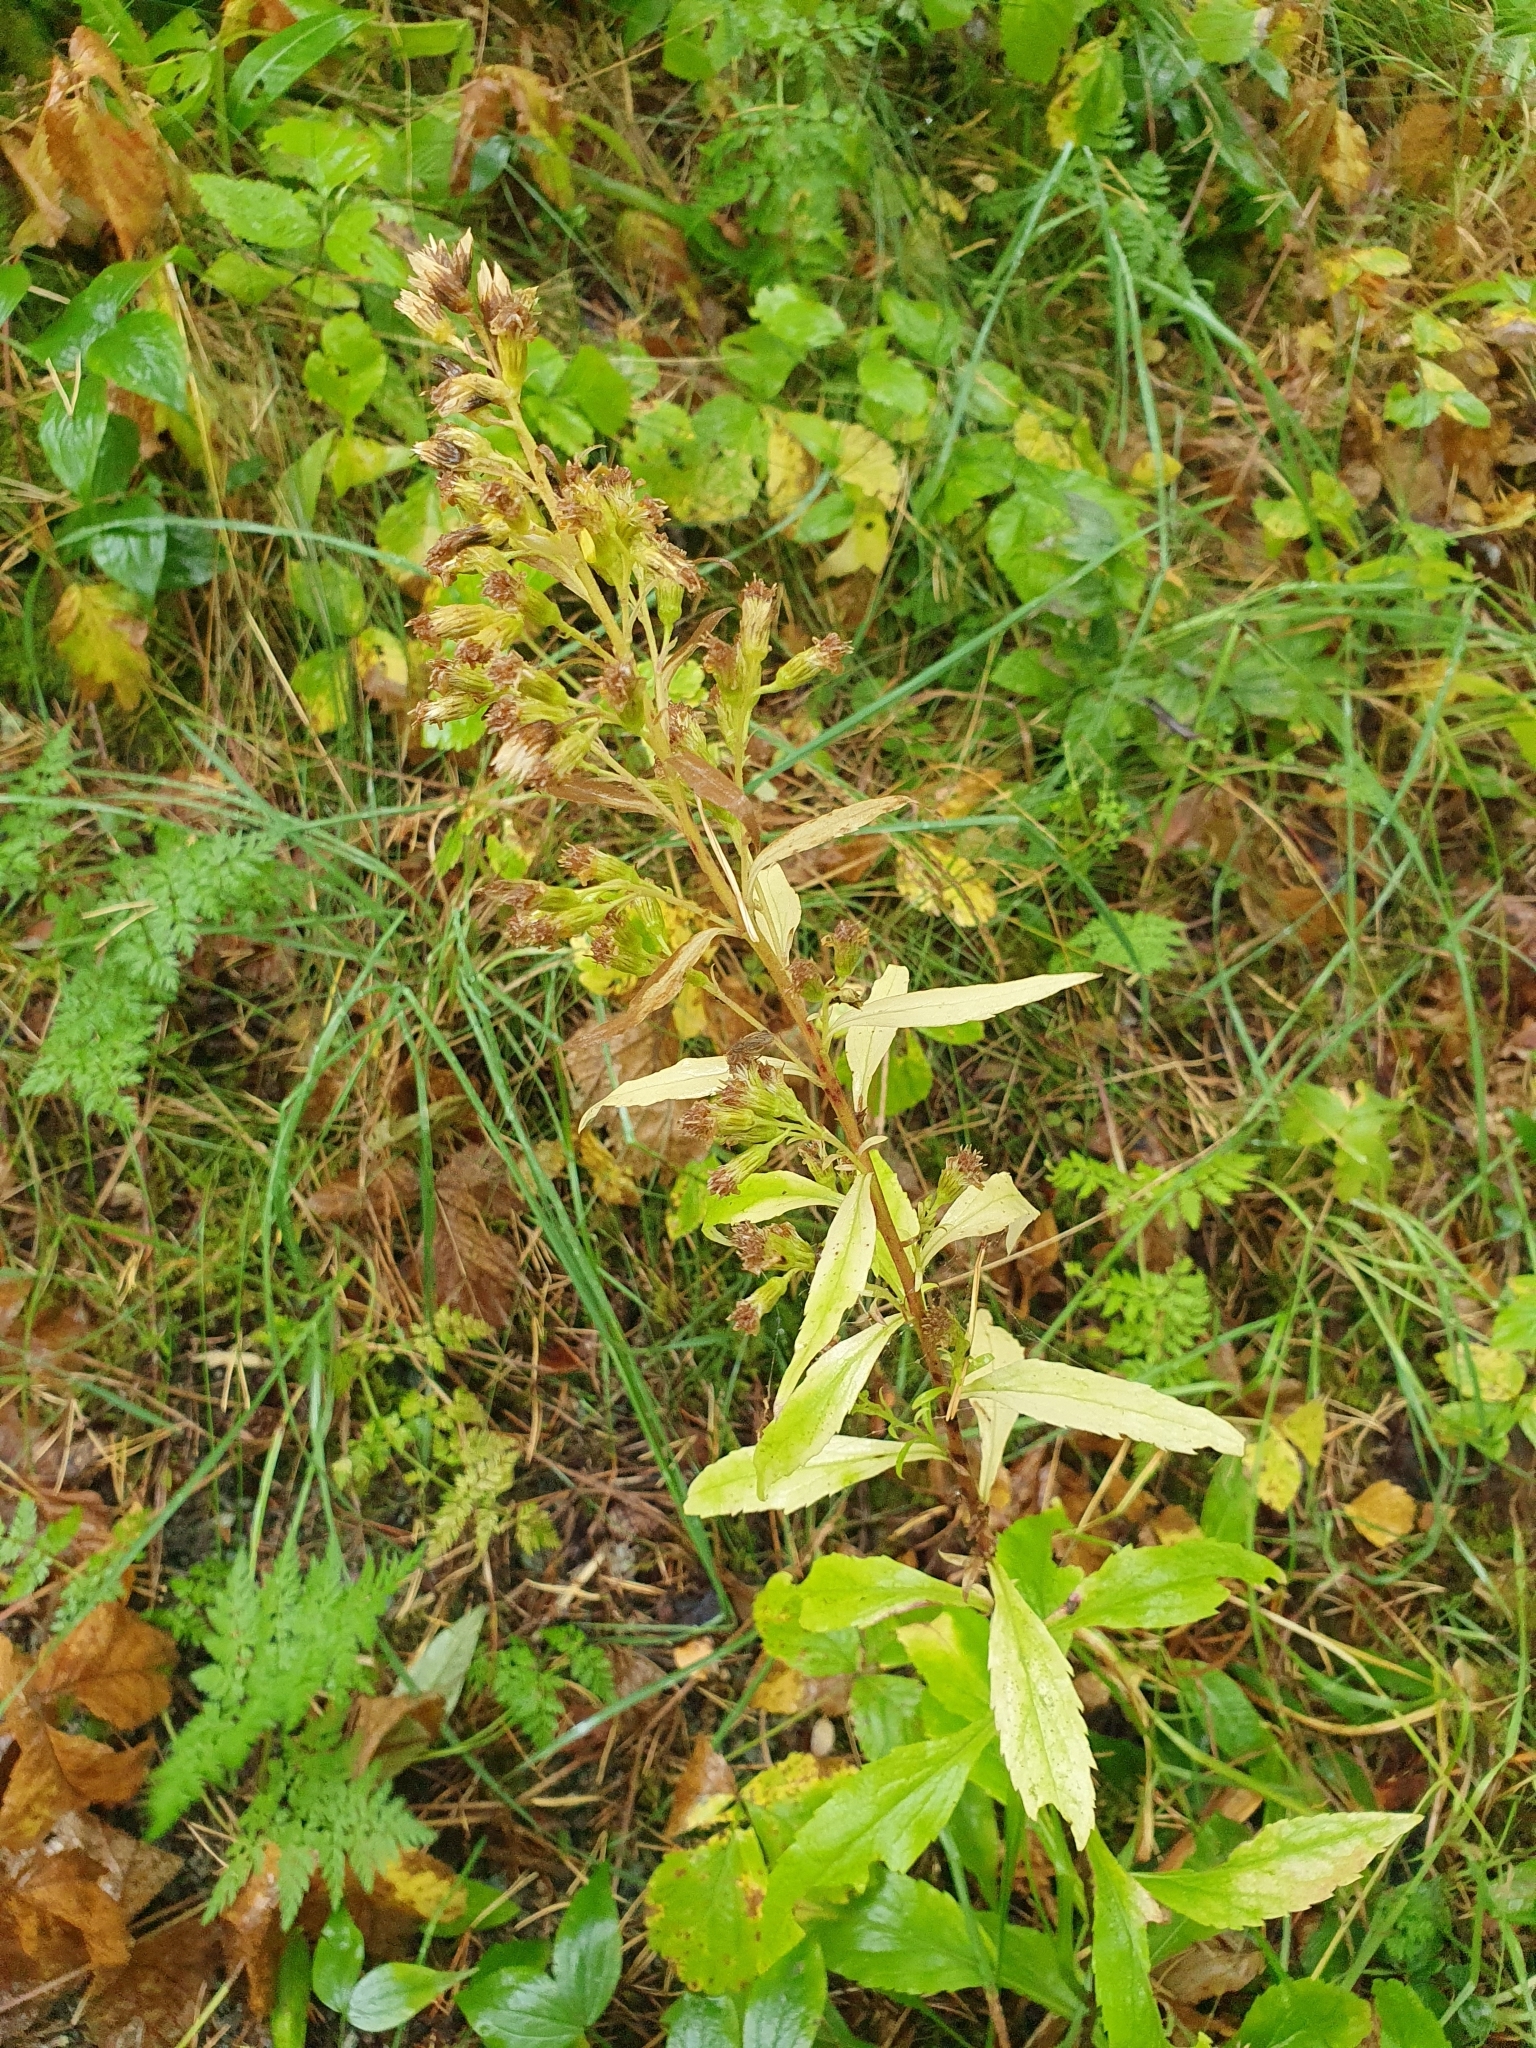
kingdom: Plantae
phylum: Tracheophyta
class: Magnoliopsida
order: Asterales
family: Asteraceae
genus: Solidago
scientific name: Solidago virgaurea
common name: Goldenrod
